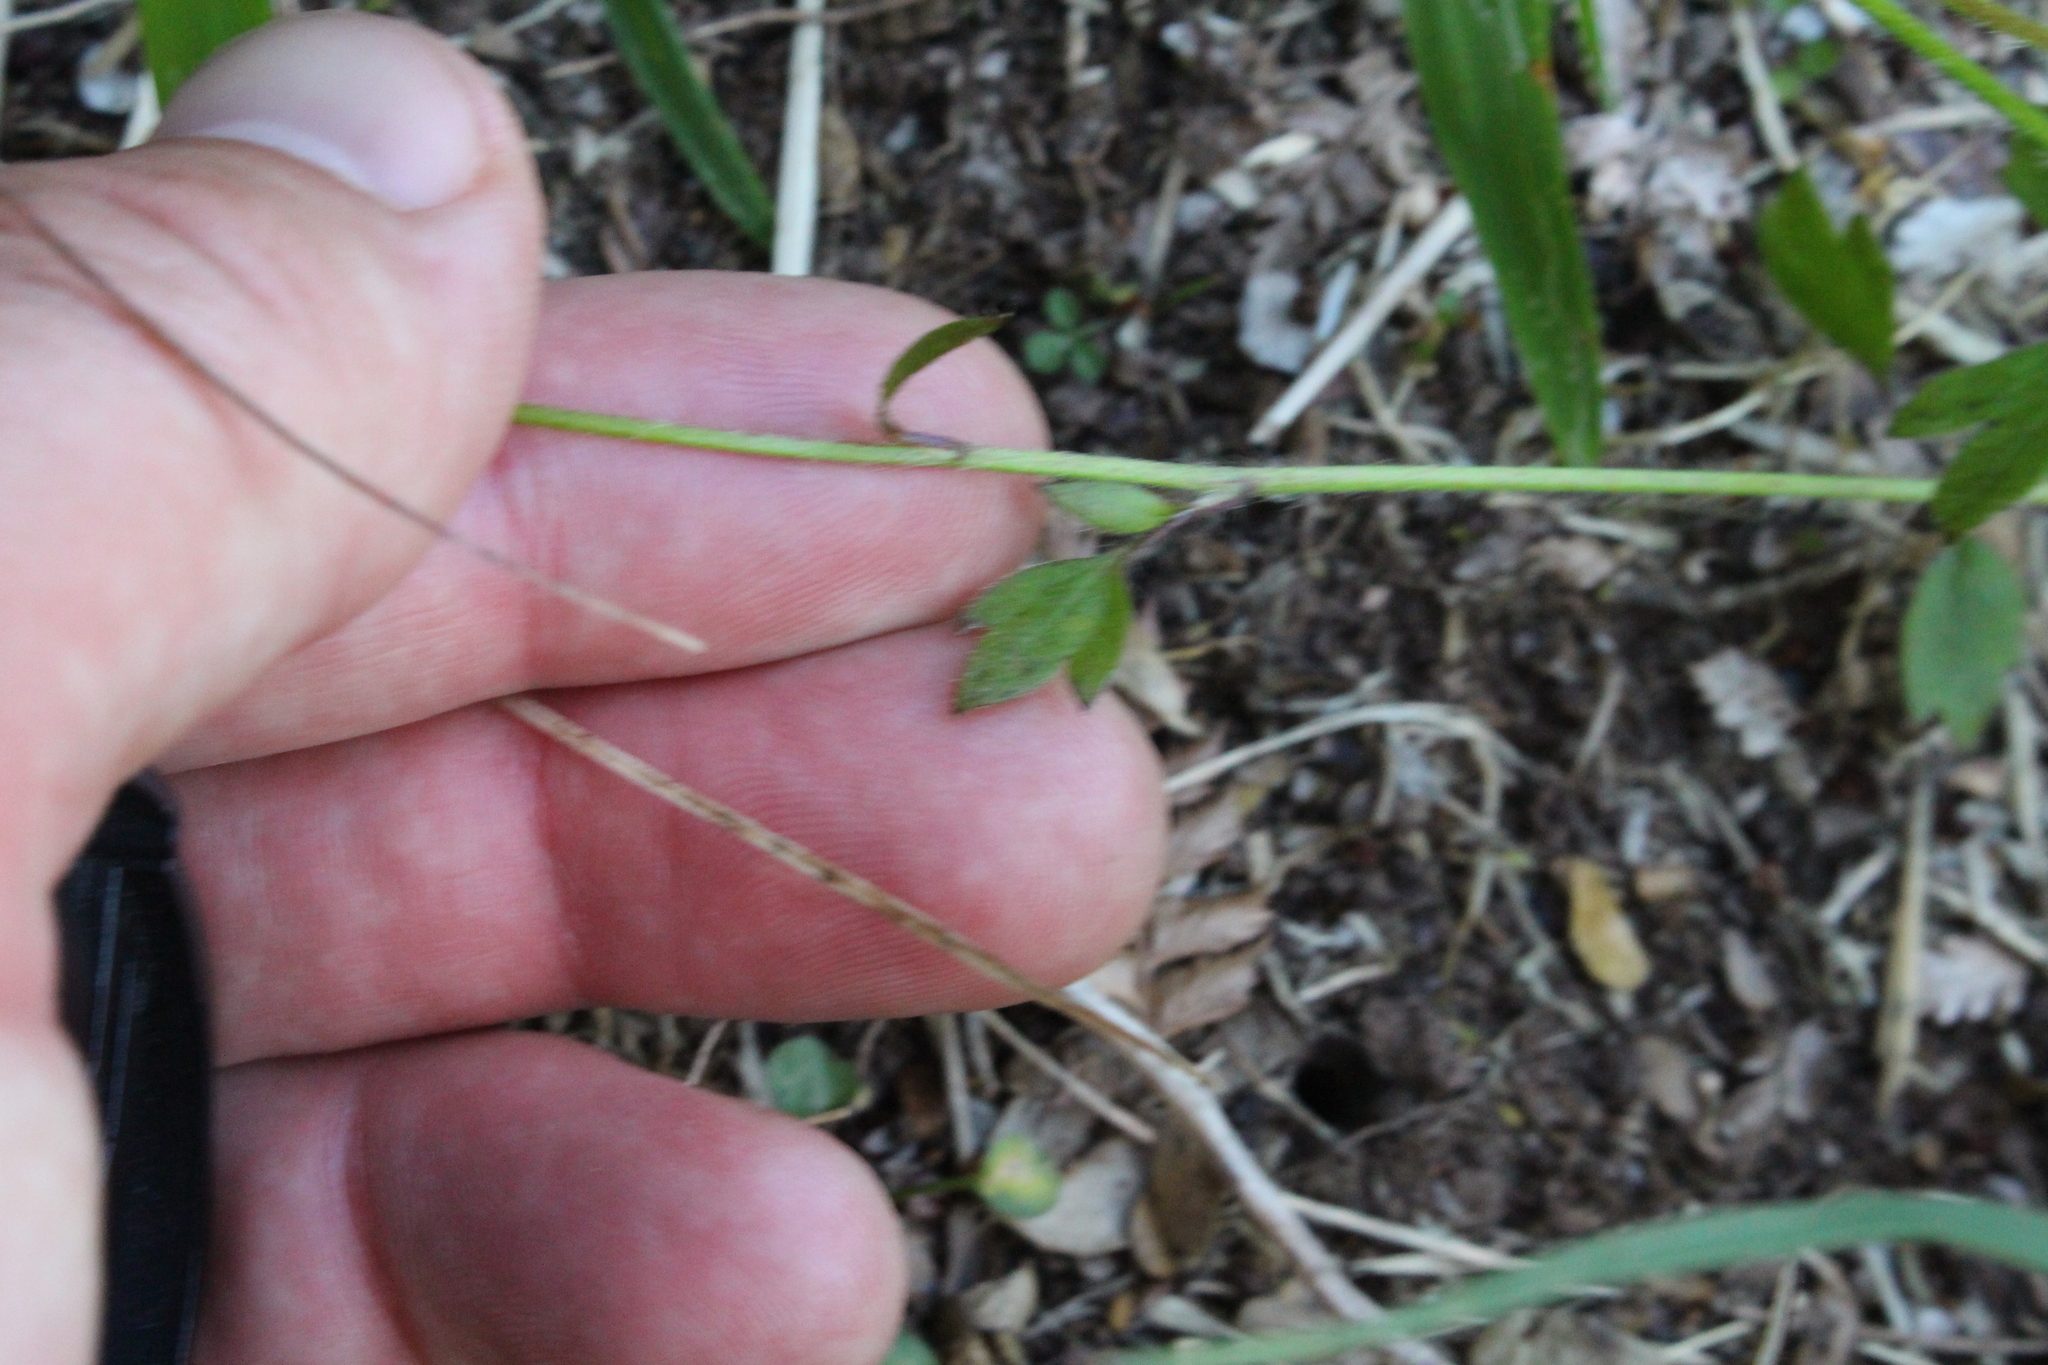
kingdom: Plantae
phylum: Tracheophyta
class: Magnoliopsida
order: Ranunculales
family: Ranunculaceae
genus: Ranunculus
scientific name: Ranunculus reflexus
